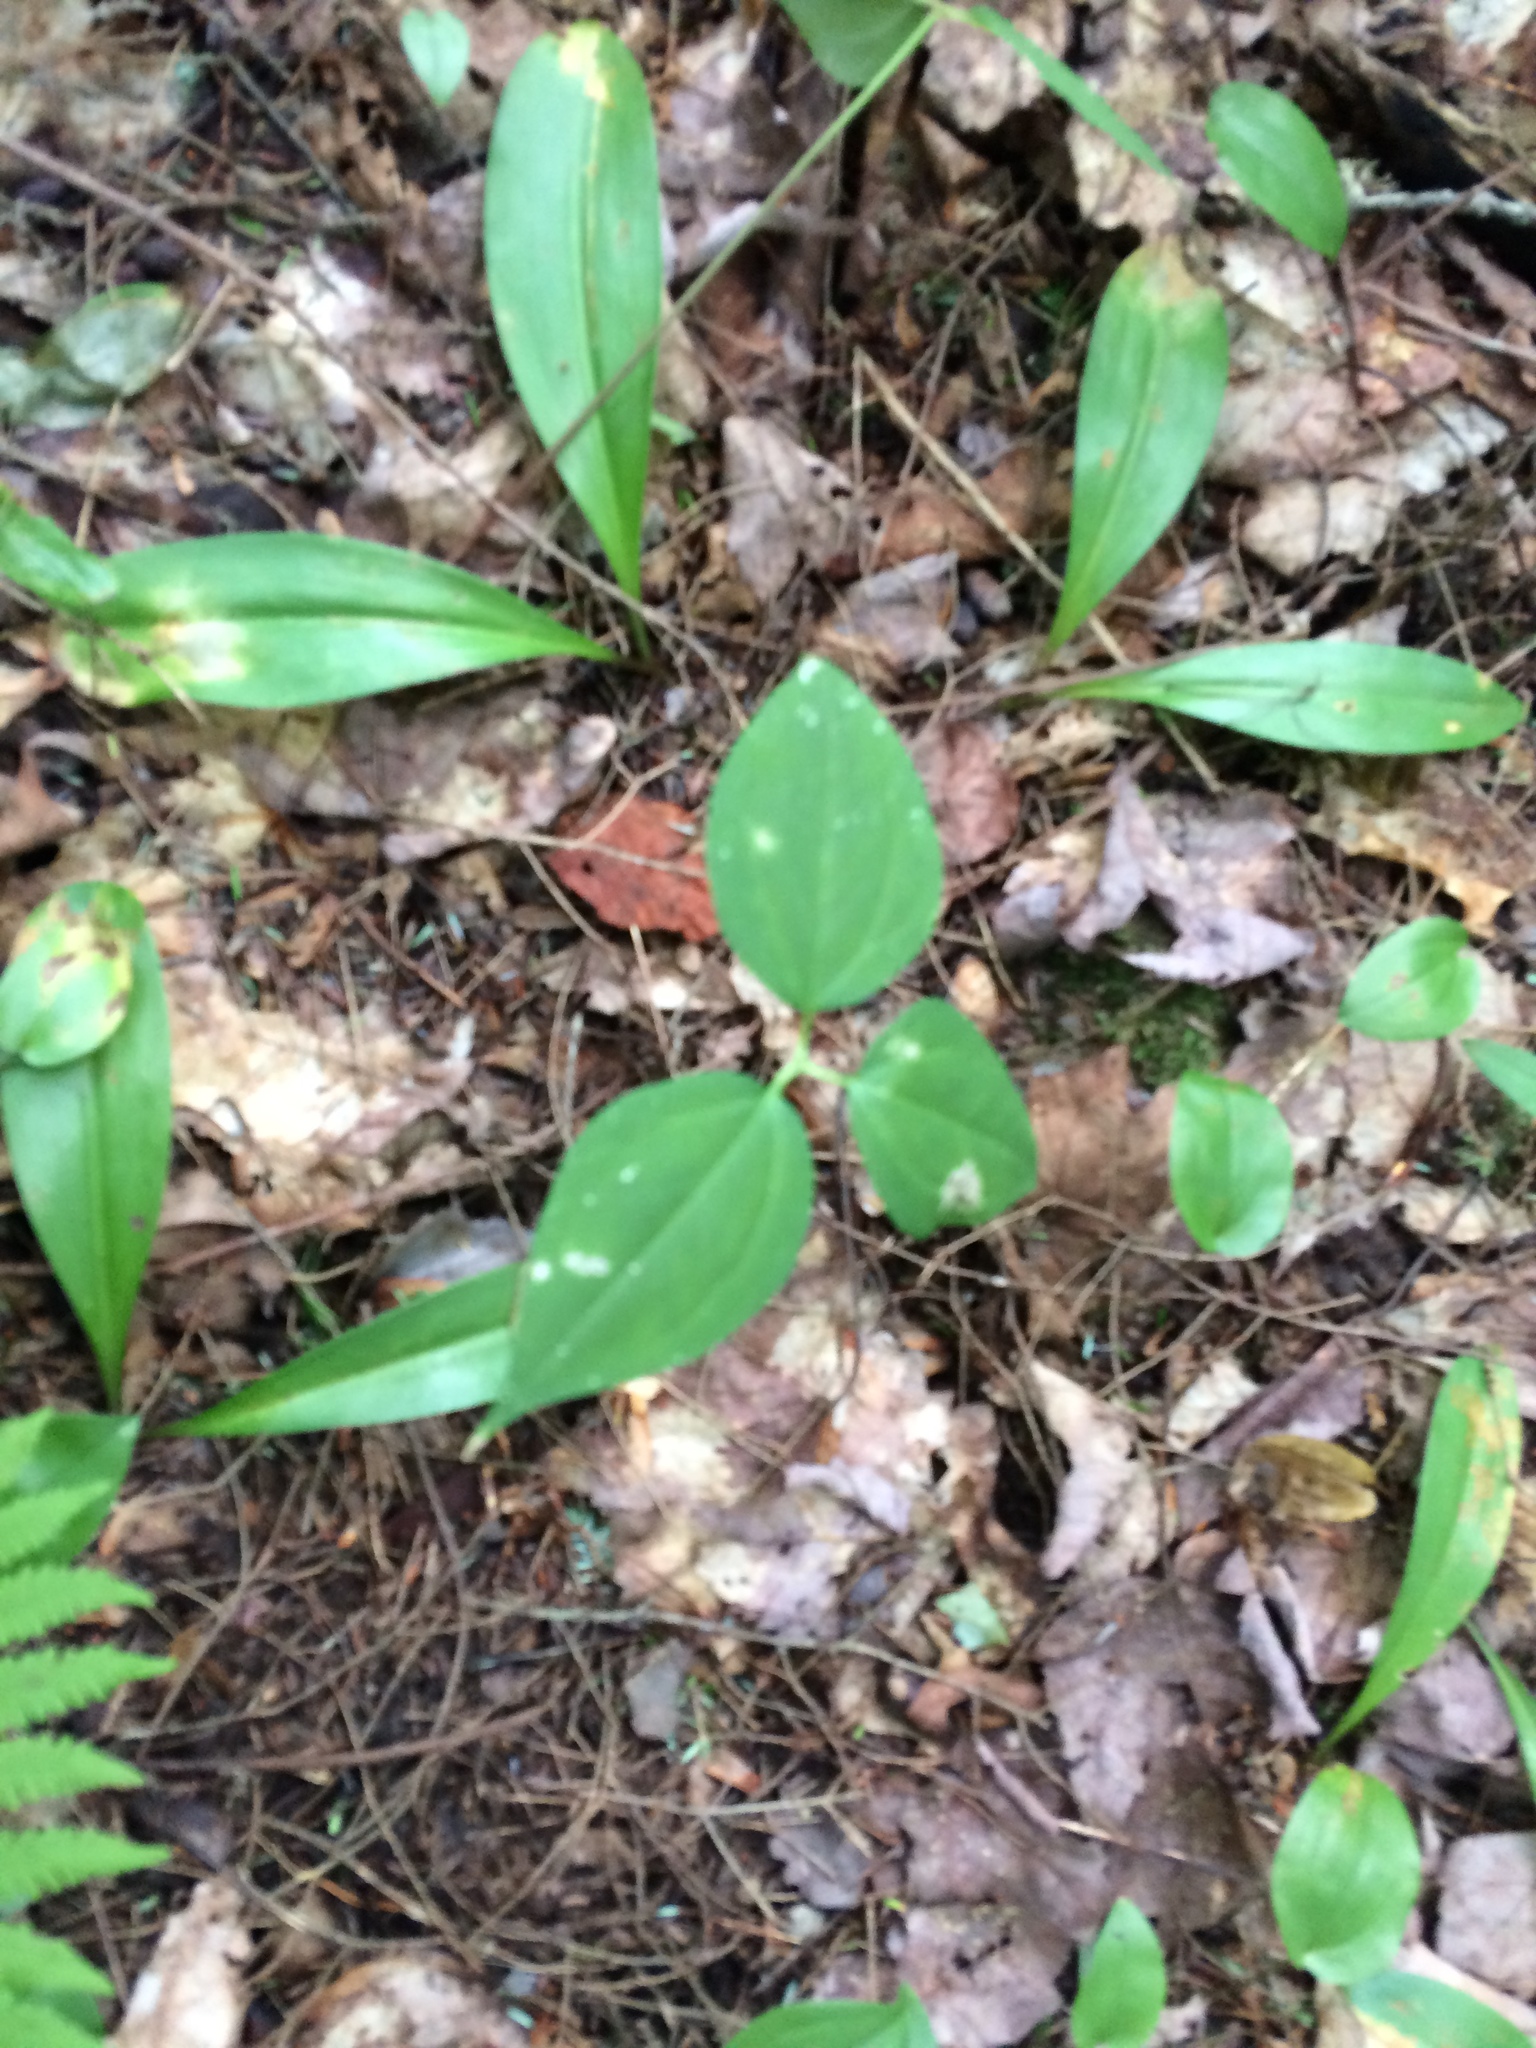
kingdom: Plantae
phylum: Tracheophyta
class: Liliopsida
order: Liliales
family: Melanthiaceae
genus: Trillium
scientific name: Trillium undulatum
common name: Paint trillium
